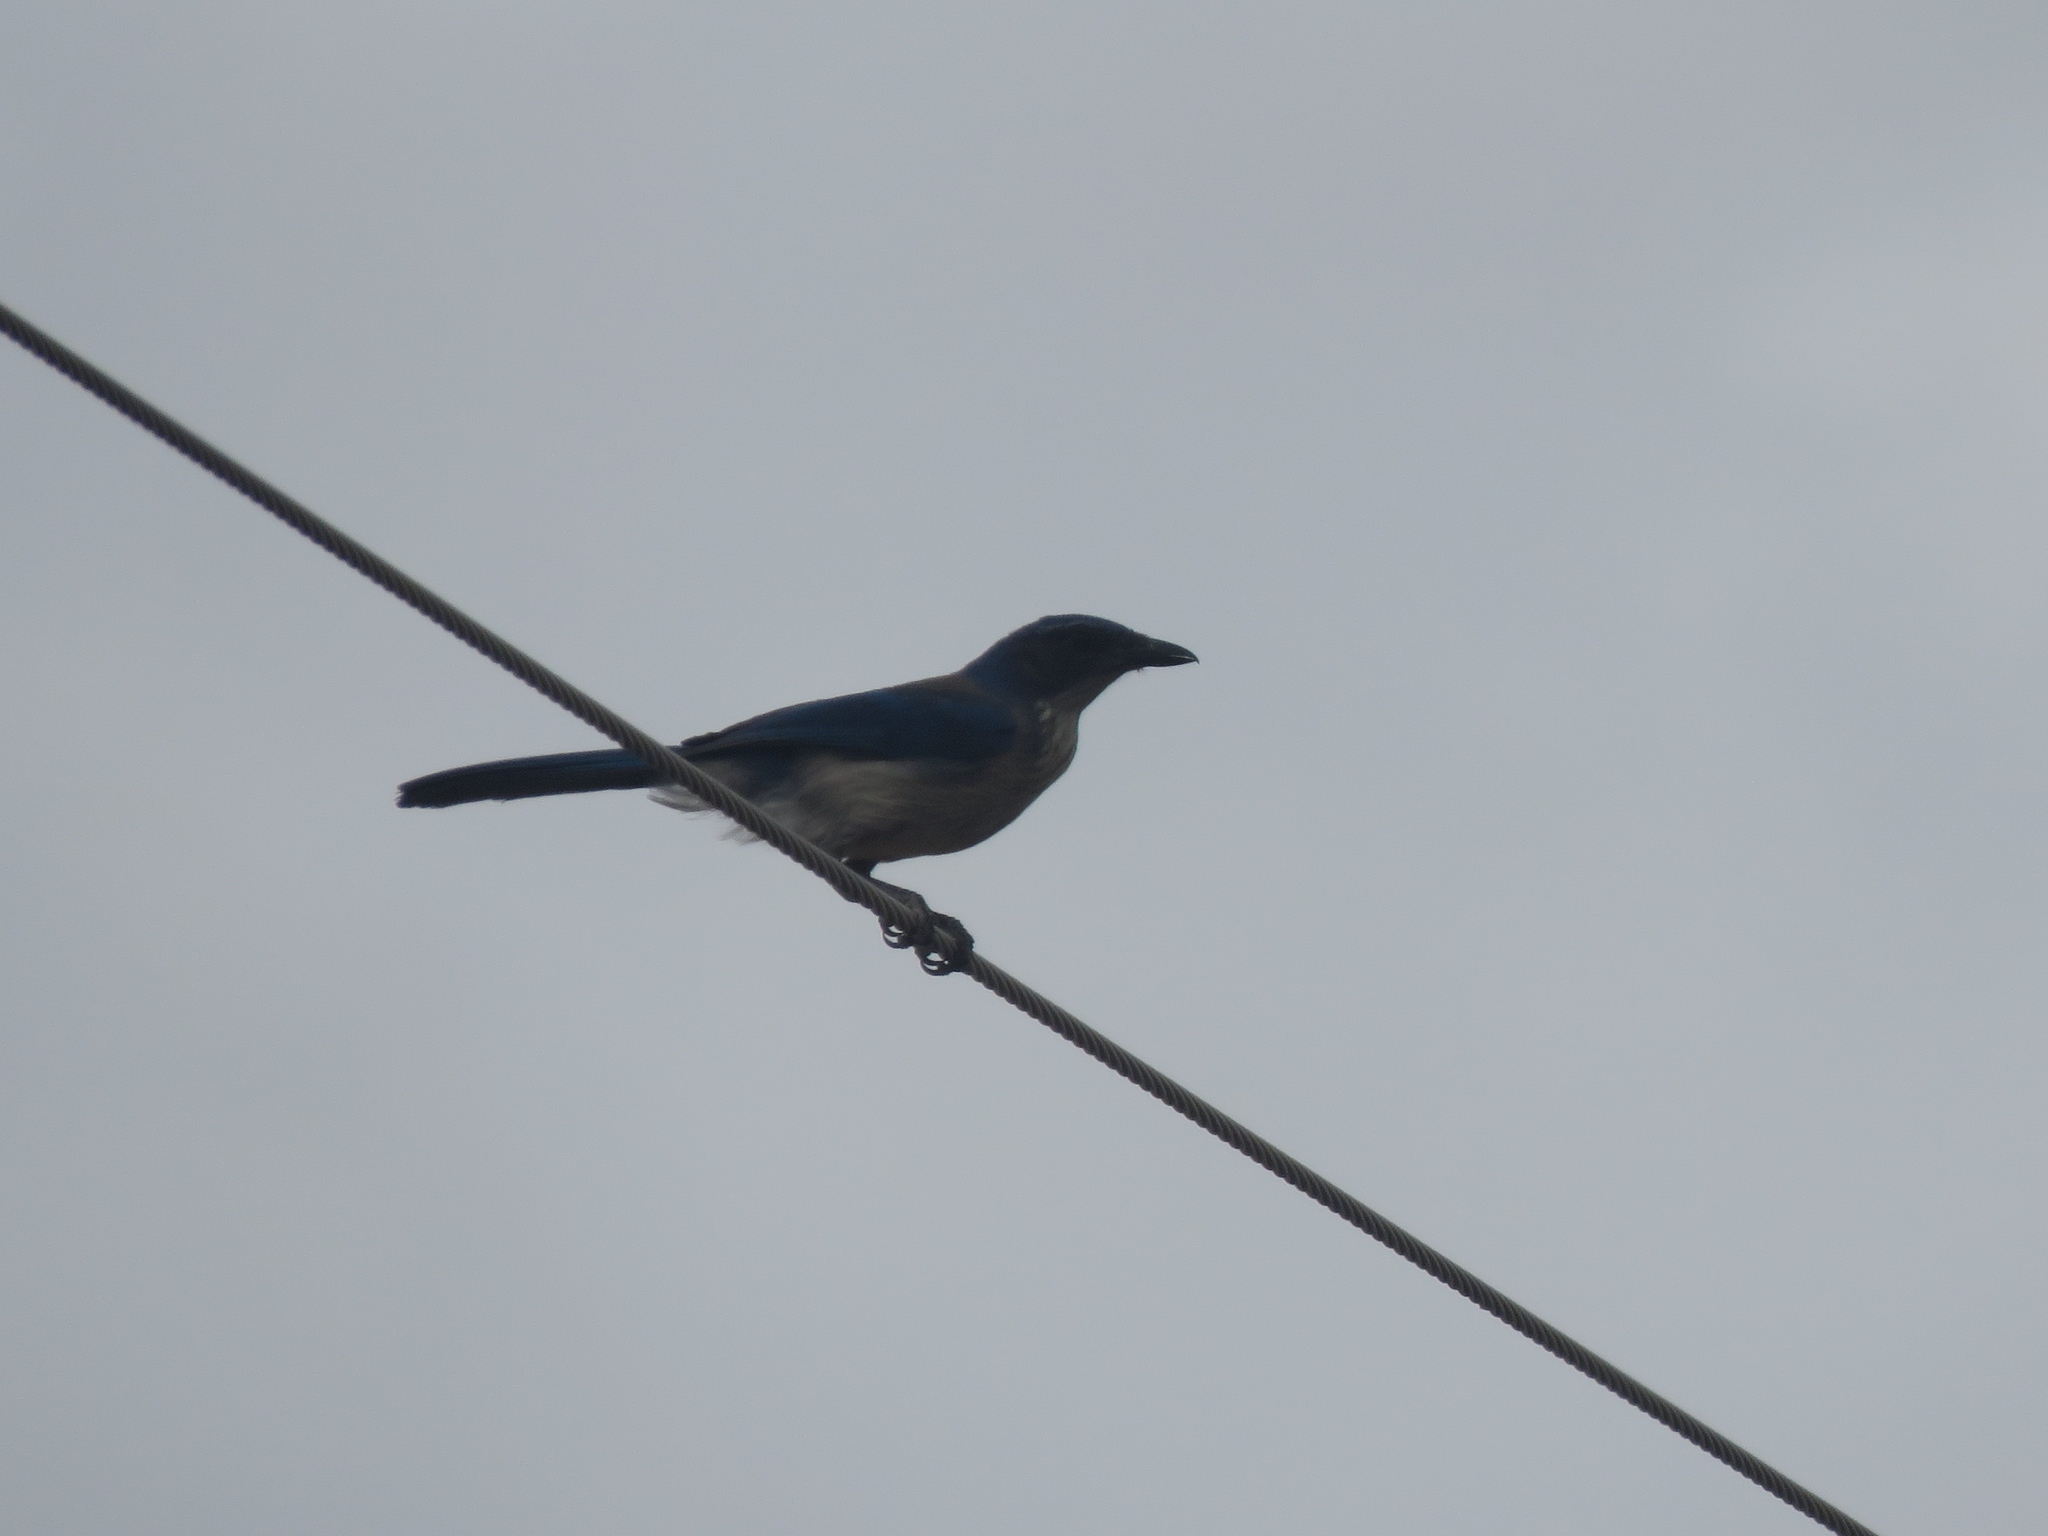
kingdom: Animalia
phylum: Chordata
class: Aves
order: Passeriformes
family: Corvidae
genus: Aphelocoma
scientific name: Aphelocoma woodhouseii
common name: Woodhouse's scrub-jay
